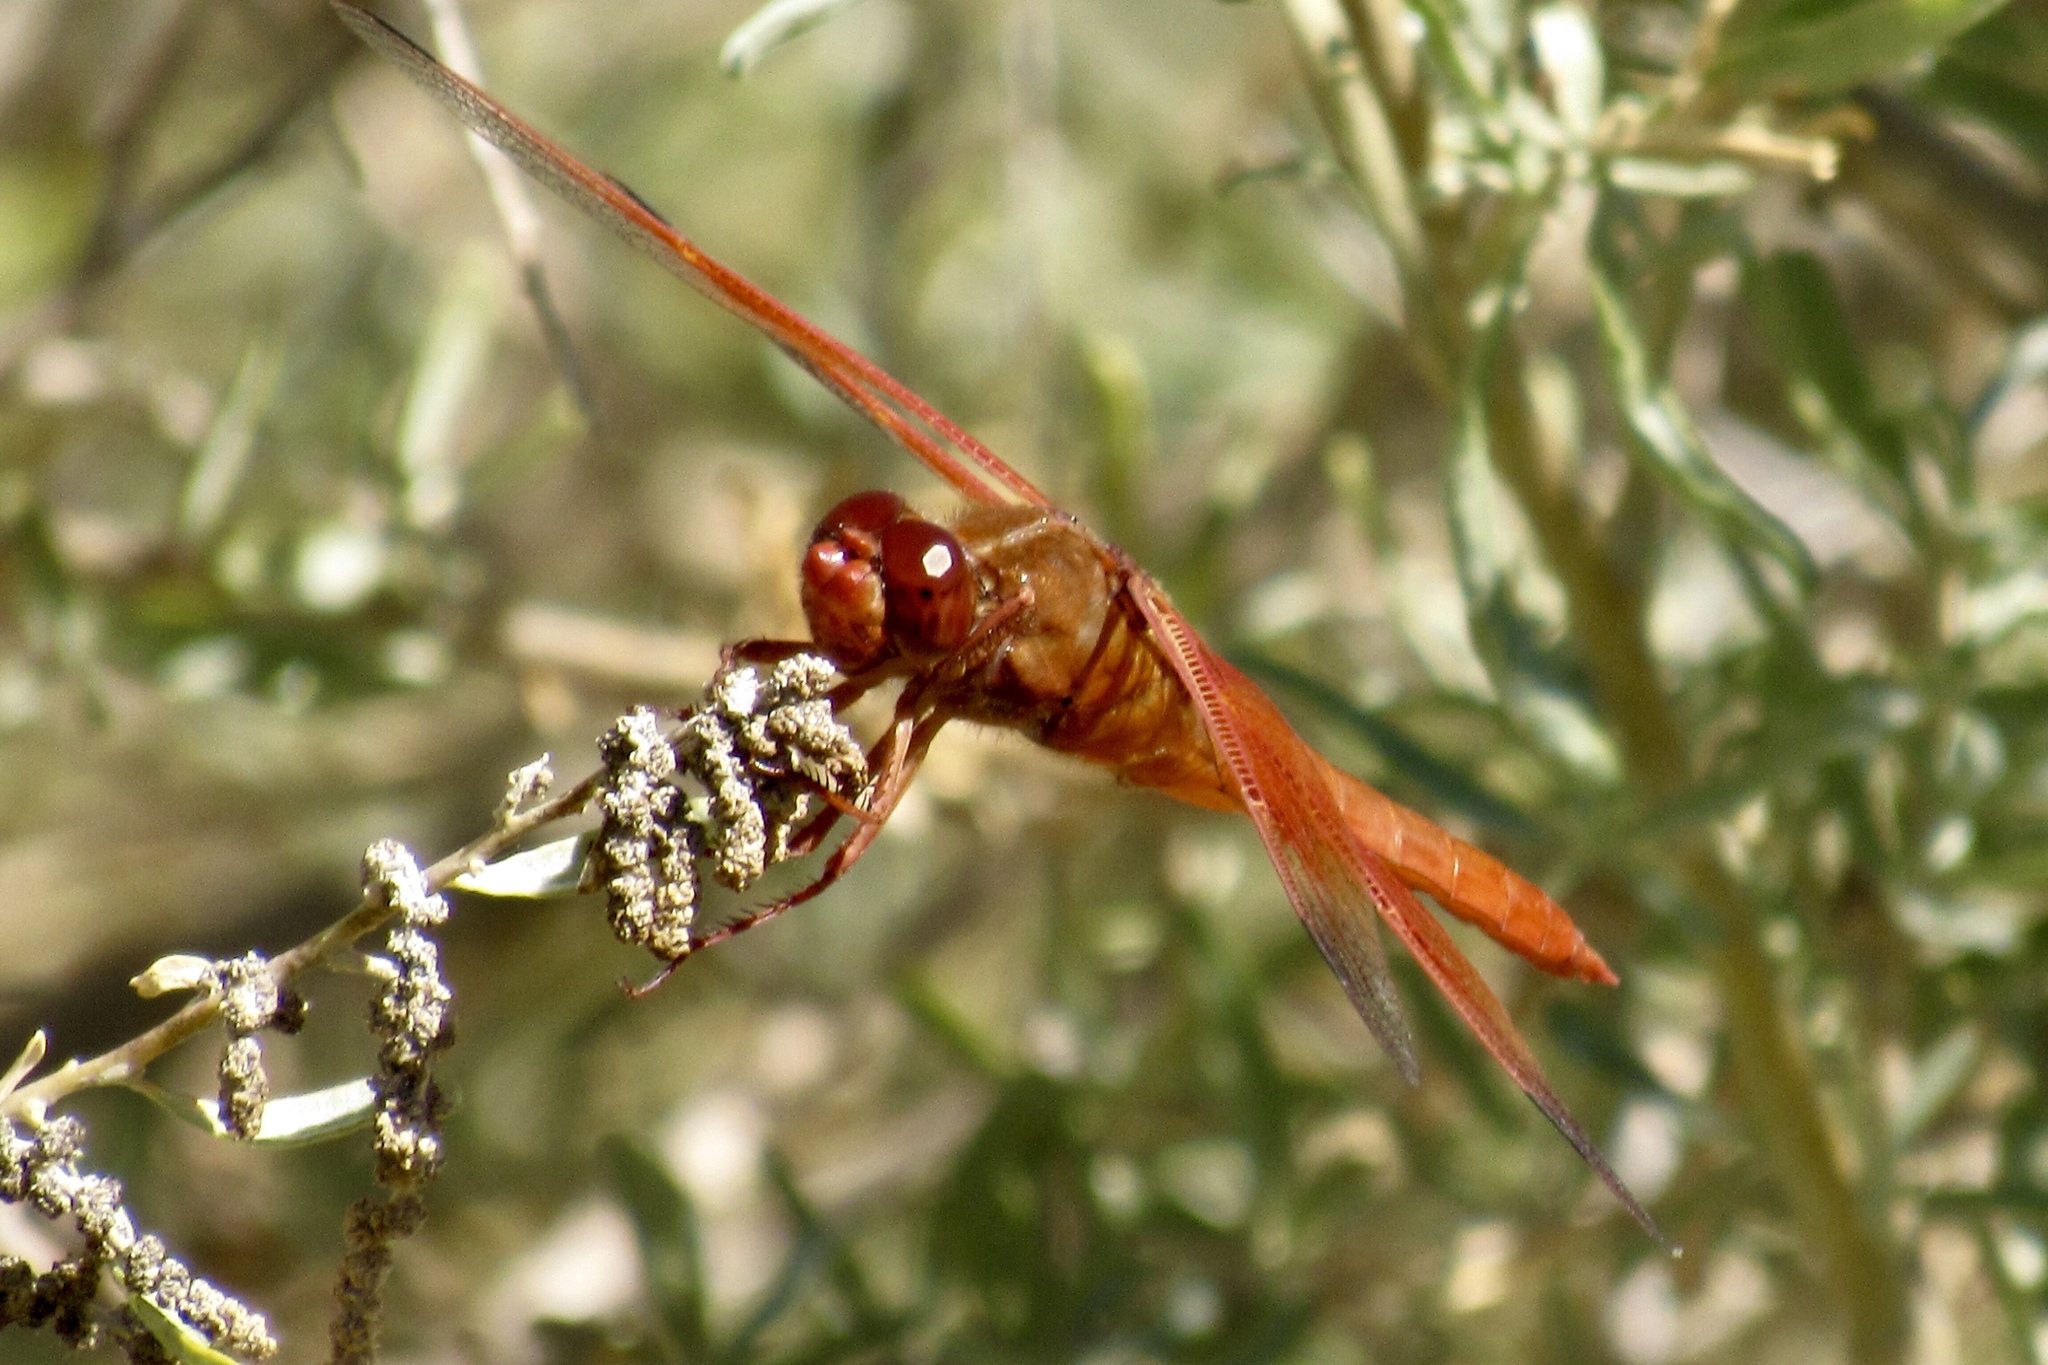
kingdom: Animalia
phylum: Arthropoda
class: Insecta
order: Odonata
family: Libellulidae
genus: Libellula
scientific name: Libellula saturata
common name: Flame skimmer
